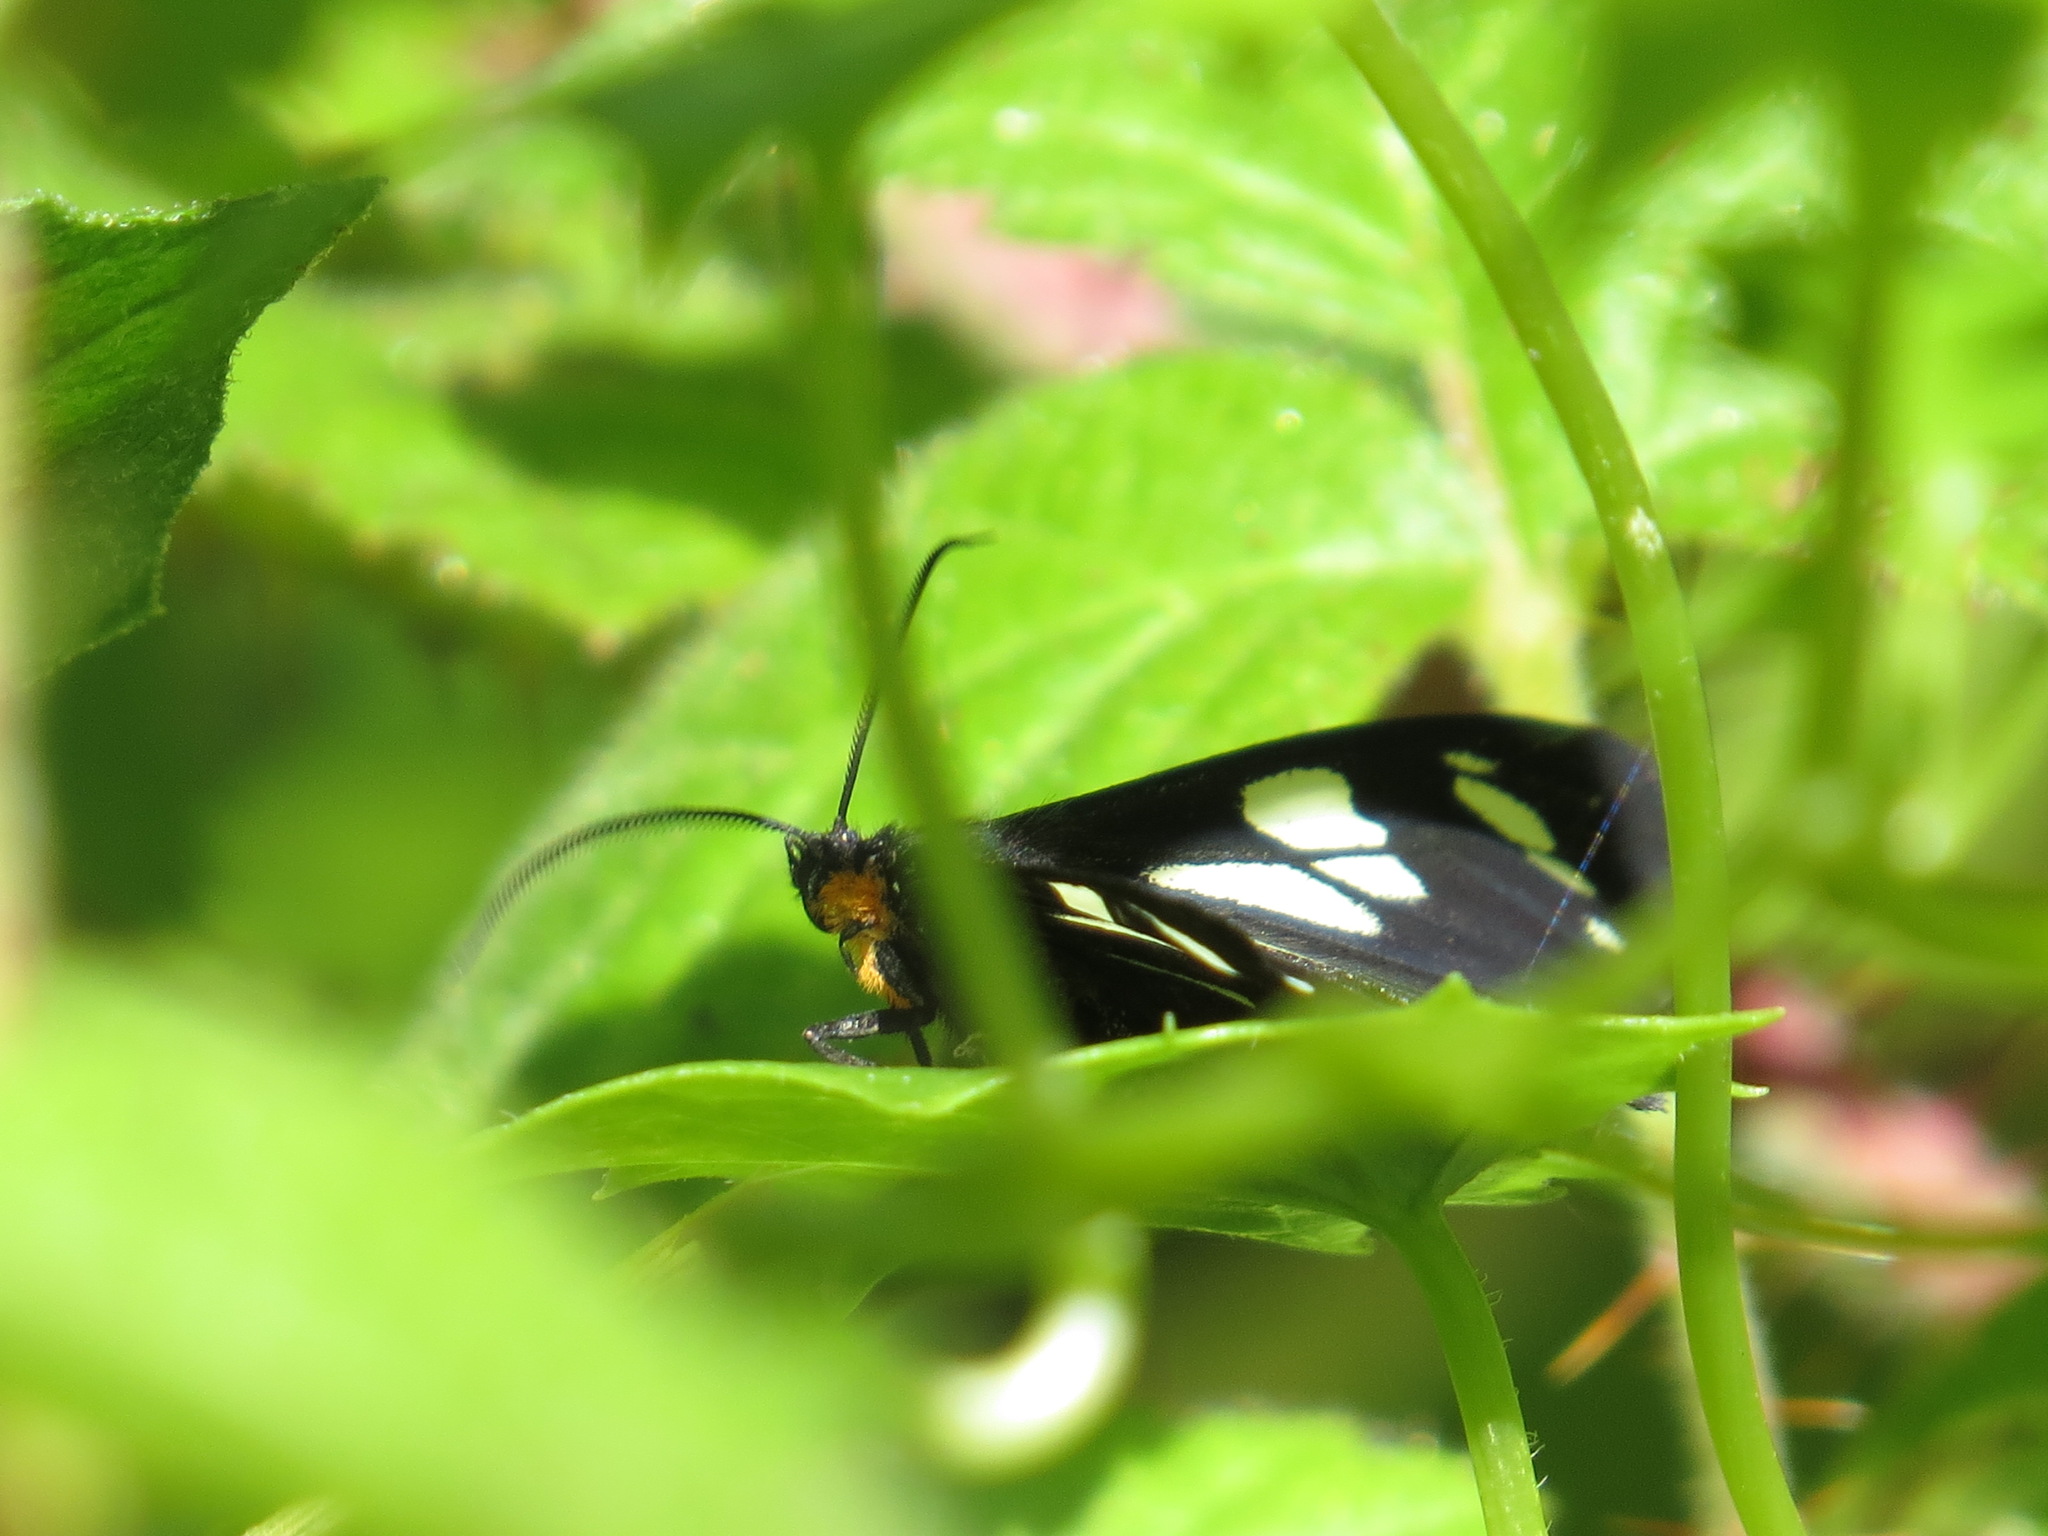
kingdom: Animalia
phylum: Arthropoda
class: Insecta
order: Lepidoptera
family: Erebidae
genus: Gnophaela
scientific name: Gnophaela latipennis
